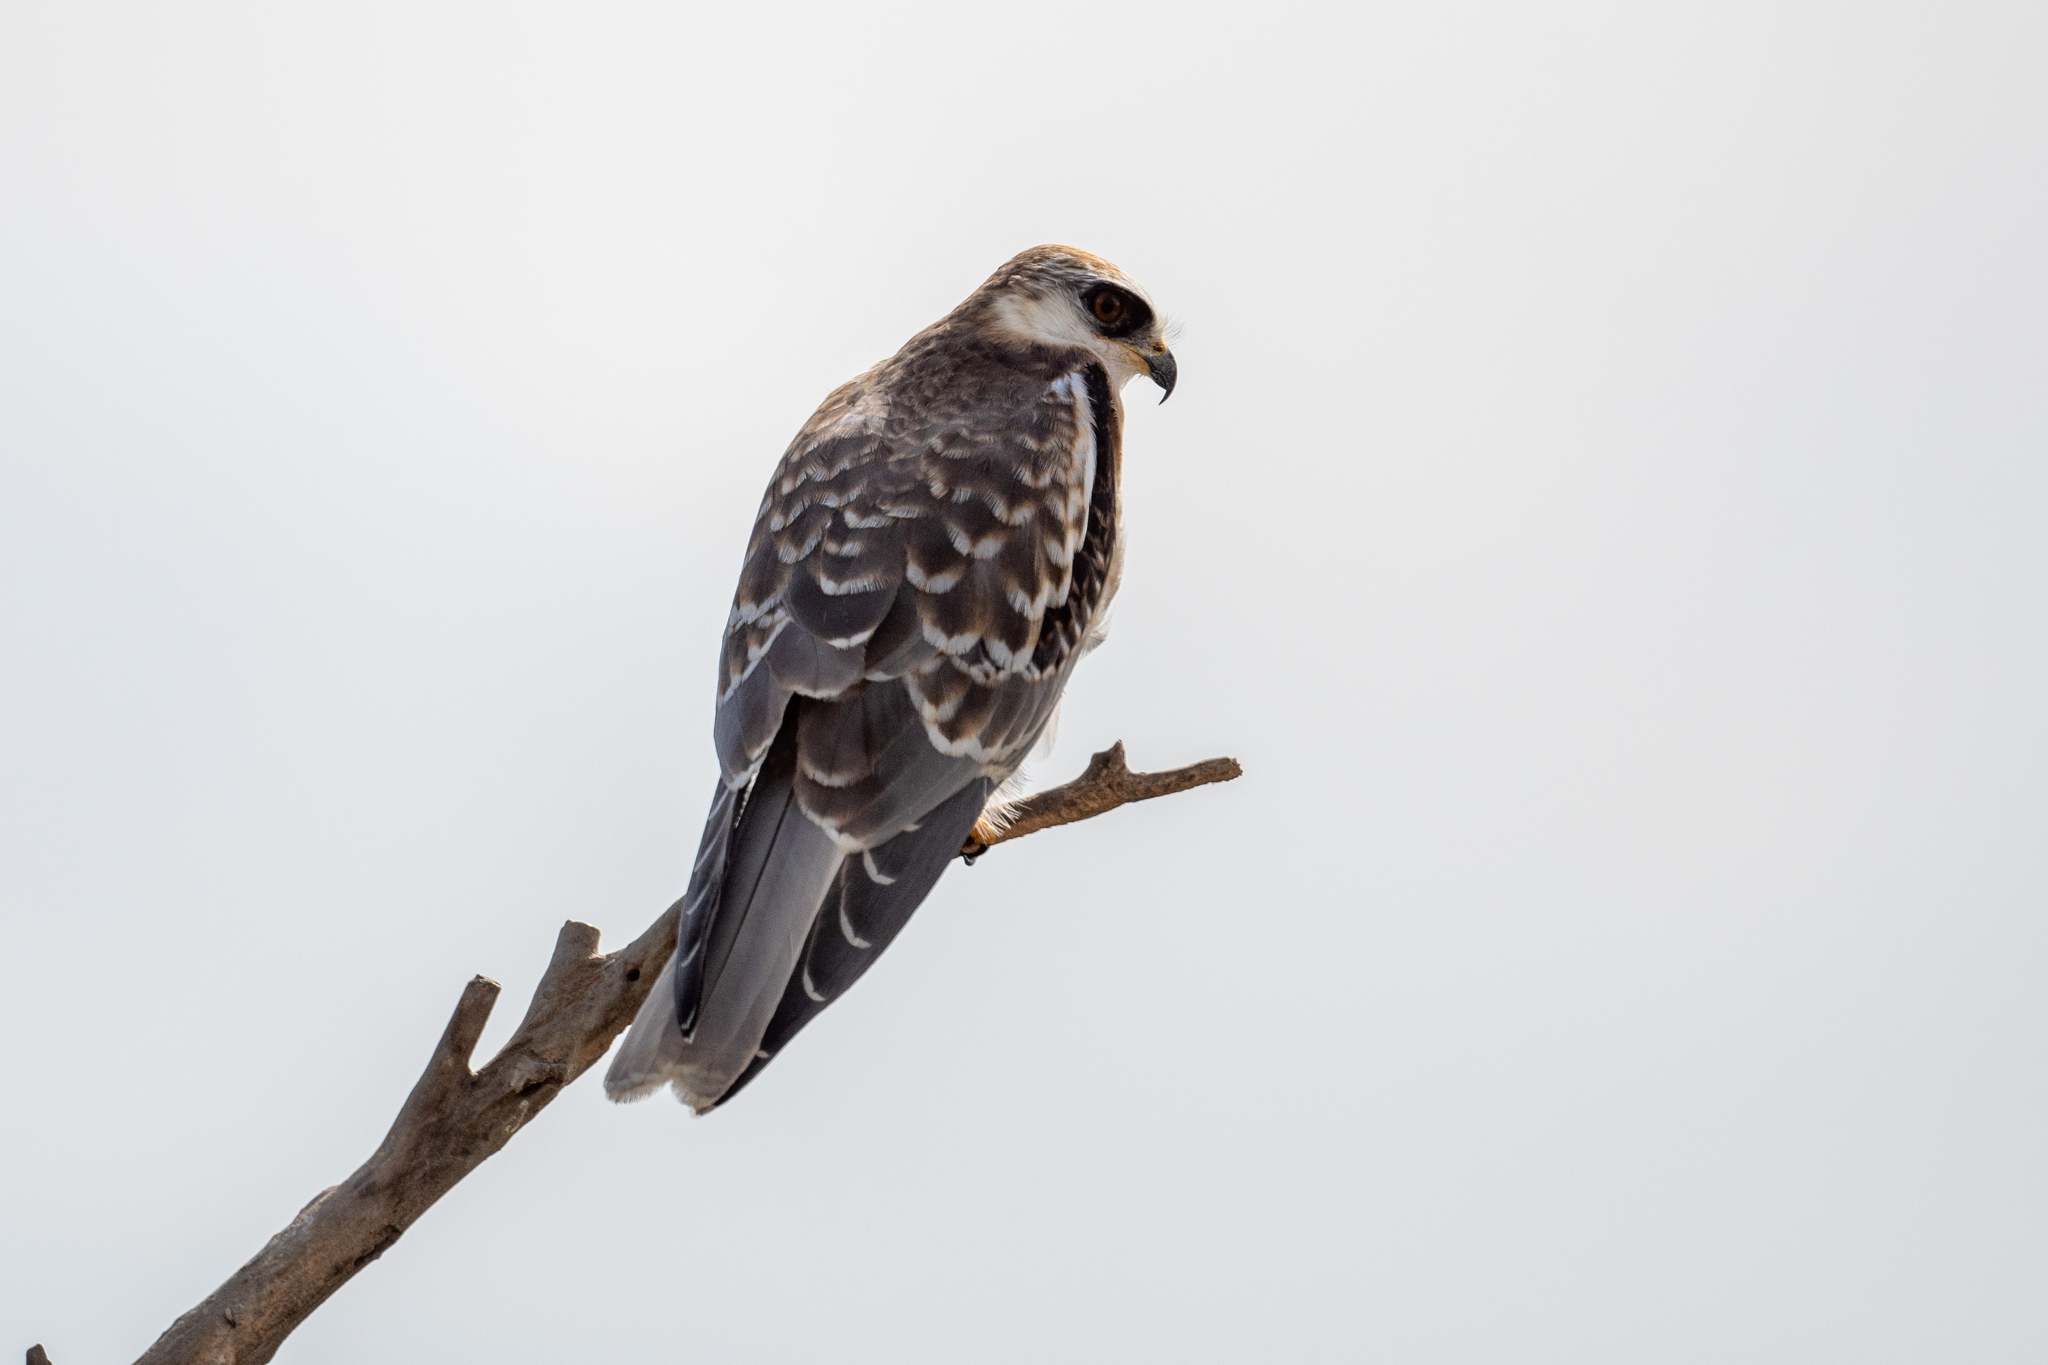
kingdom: Animalia
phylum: Chordata
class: Aves
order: Accipitriformes
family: Accipitridae
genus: Elanus
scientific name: Elanus leucurus
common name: White-tailed kite
